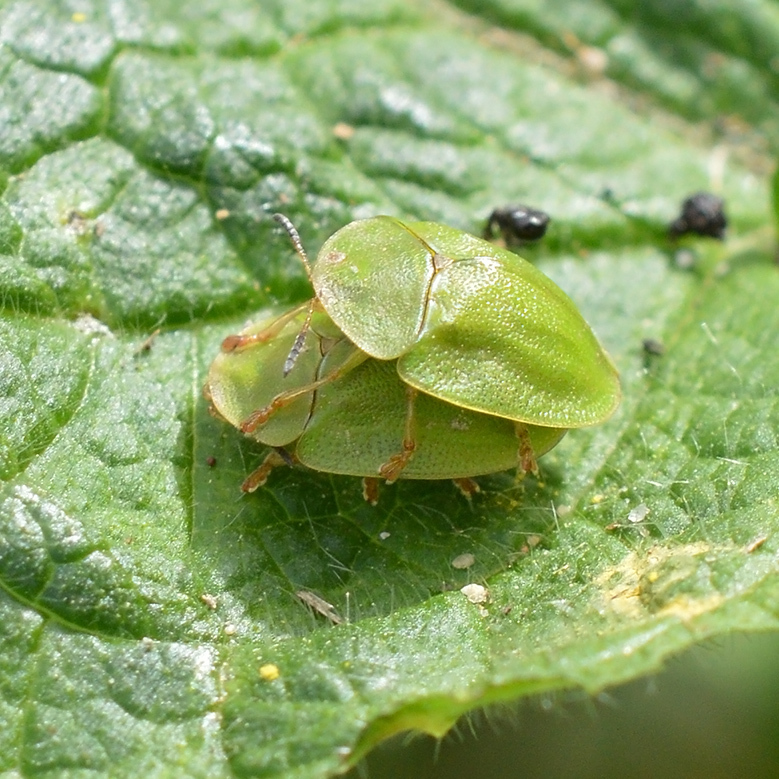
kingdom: Animalia
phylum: Arthropoda
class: Insecta
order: Coleoptera
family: Chrysomelidae
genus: Cassida
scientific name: Cassida viridis
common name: Green tortoise beetle
